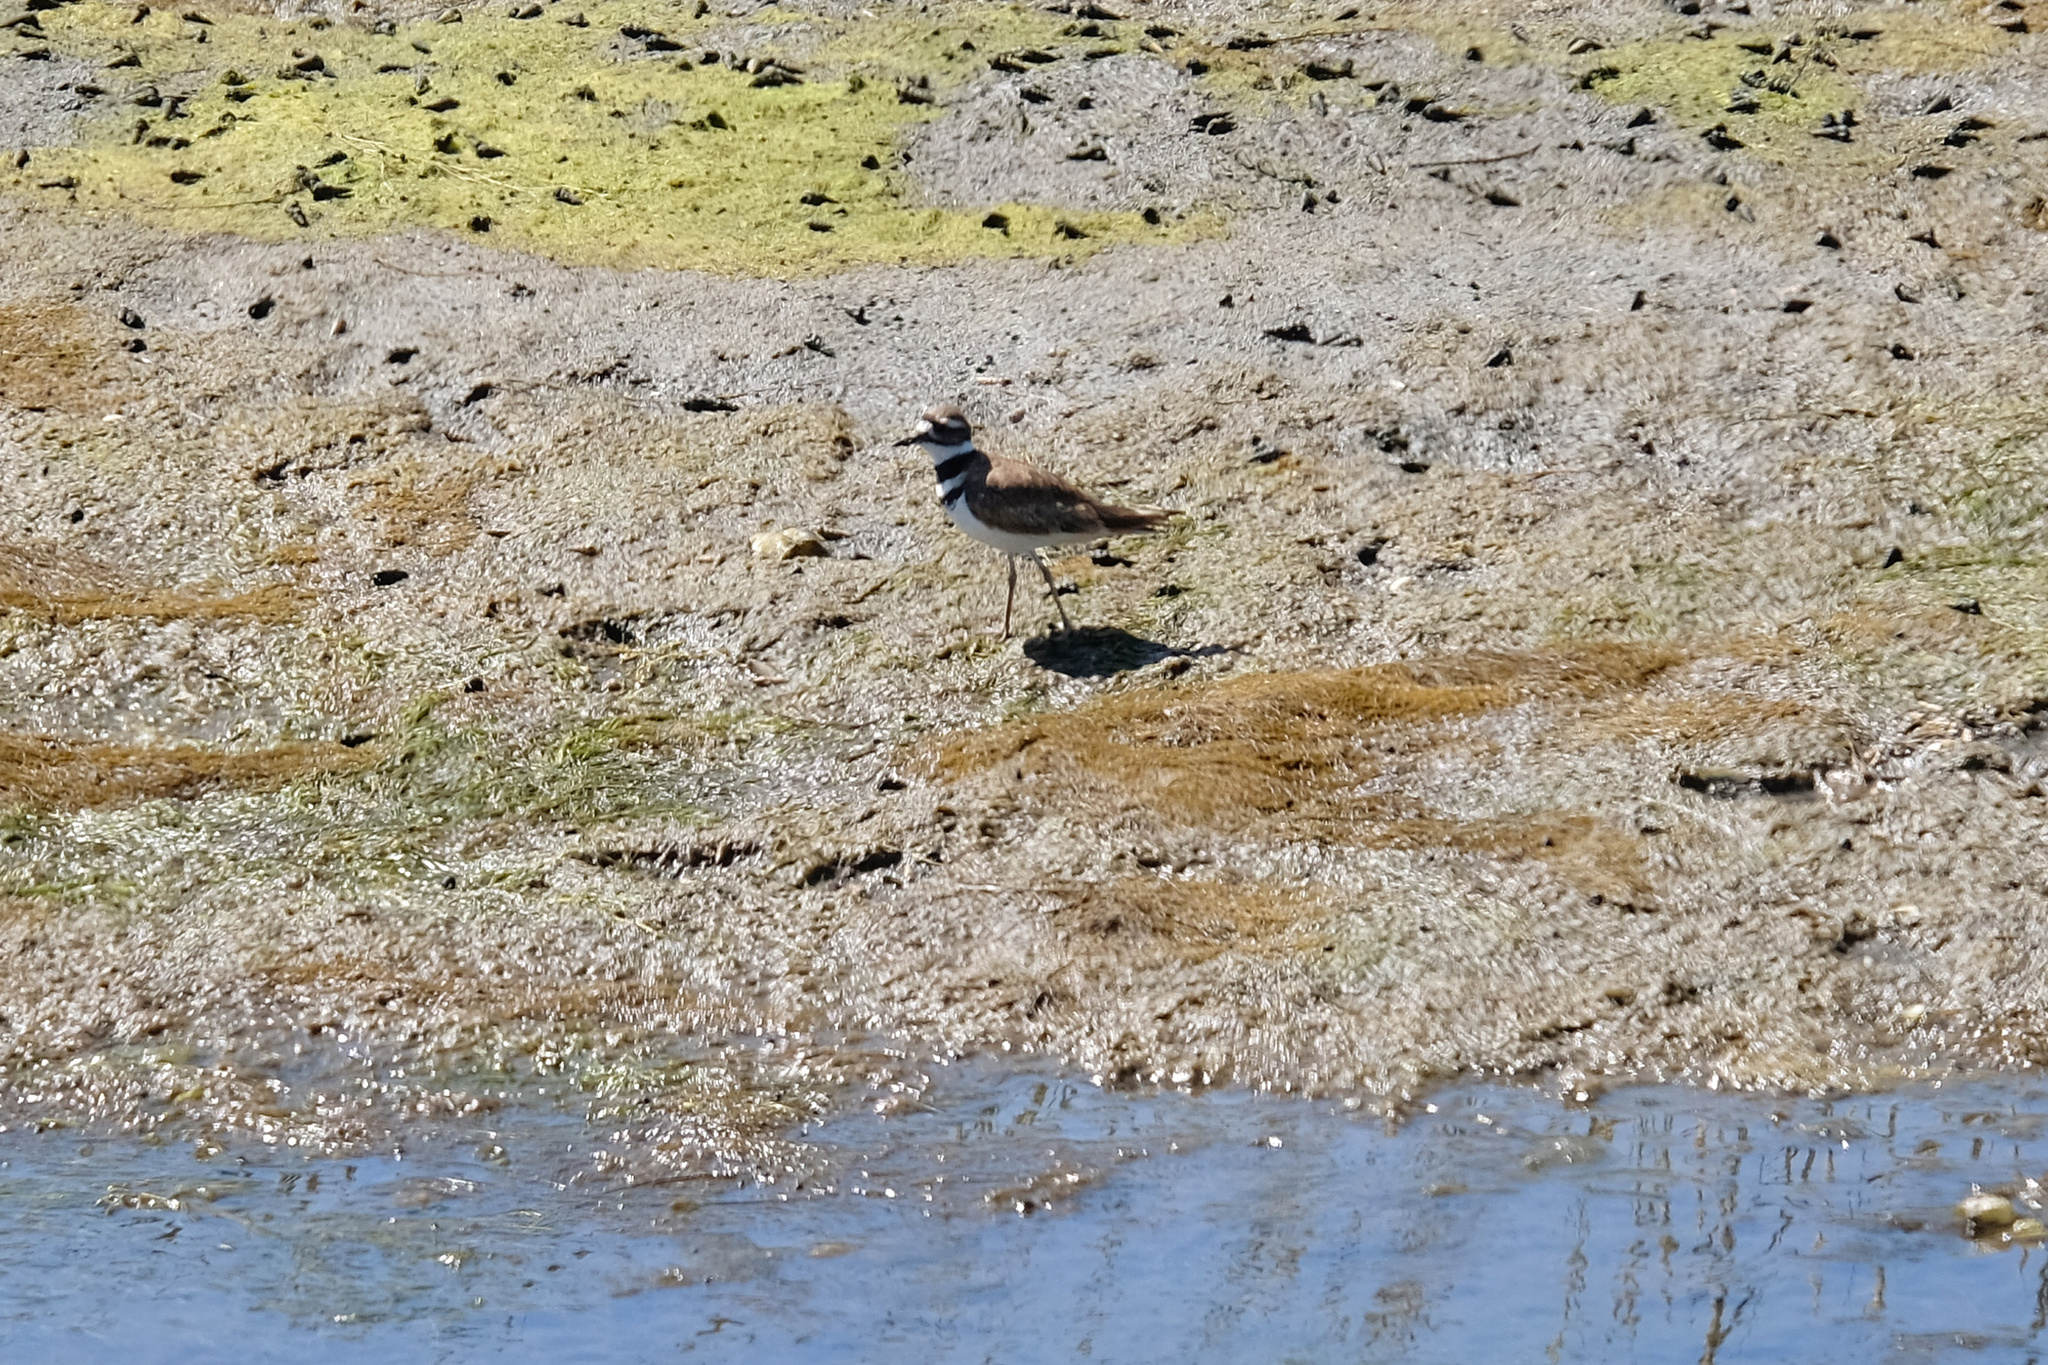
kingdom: Animalia
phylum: Chordata
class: Aves
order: Charadriiformes
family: Charadriidae
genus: Charadrius
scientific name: Charadrius vociferus
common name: Killdeer
